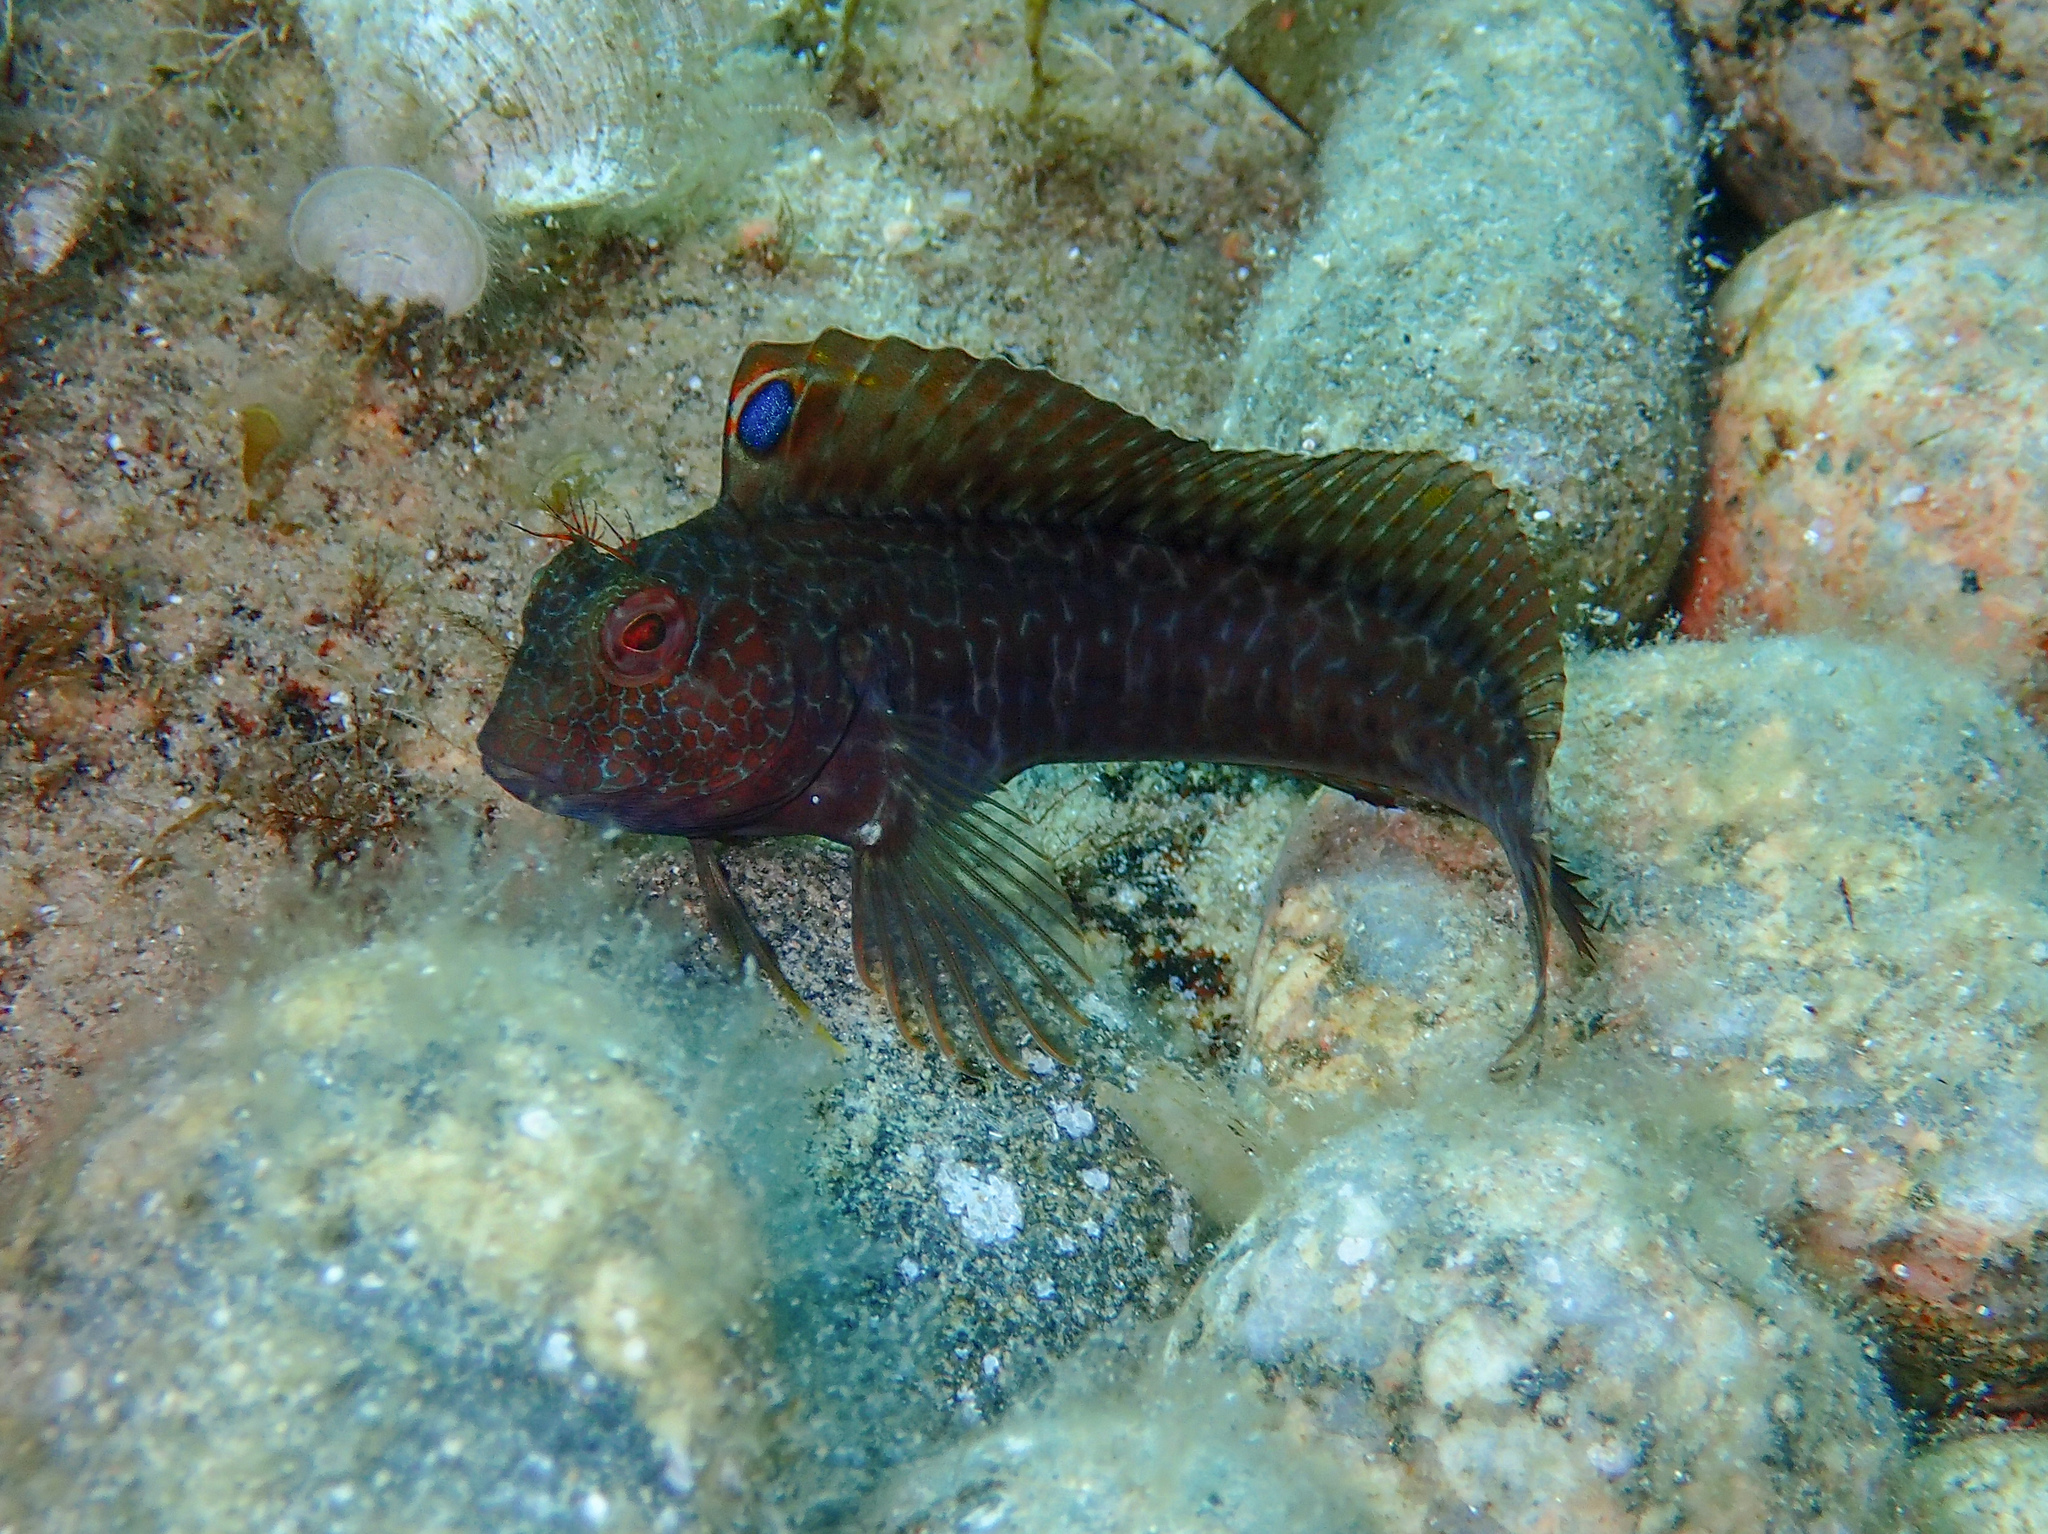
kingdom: Animalia
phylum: Chordata
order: Perciformes
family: Blenniidae
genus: Parablennius
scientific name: Parablennius pilicornis
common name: Ringneck blenny
